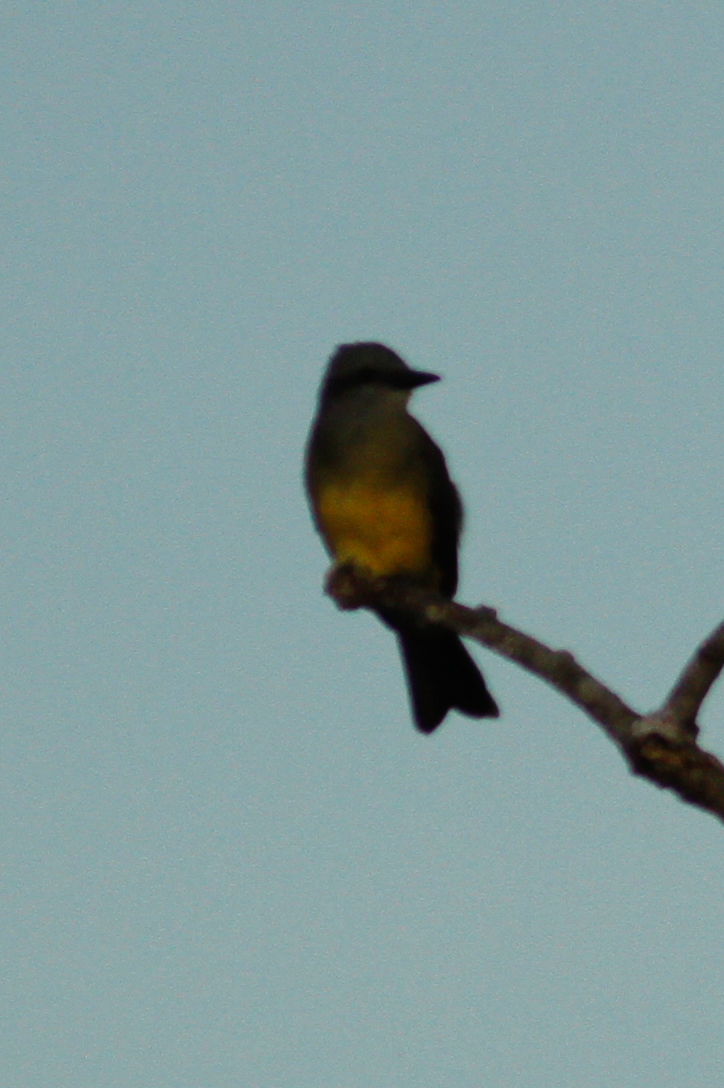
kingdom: Animalia
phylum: Chordata
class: Aves
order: Passeriformes
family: Tyrannidae
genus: Tyrannus
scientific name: Tyrannus melancholicus
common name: Tropical kingbird
